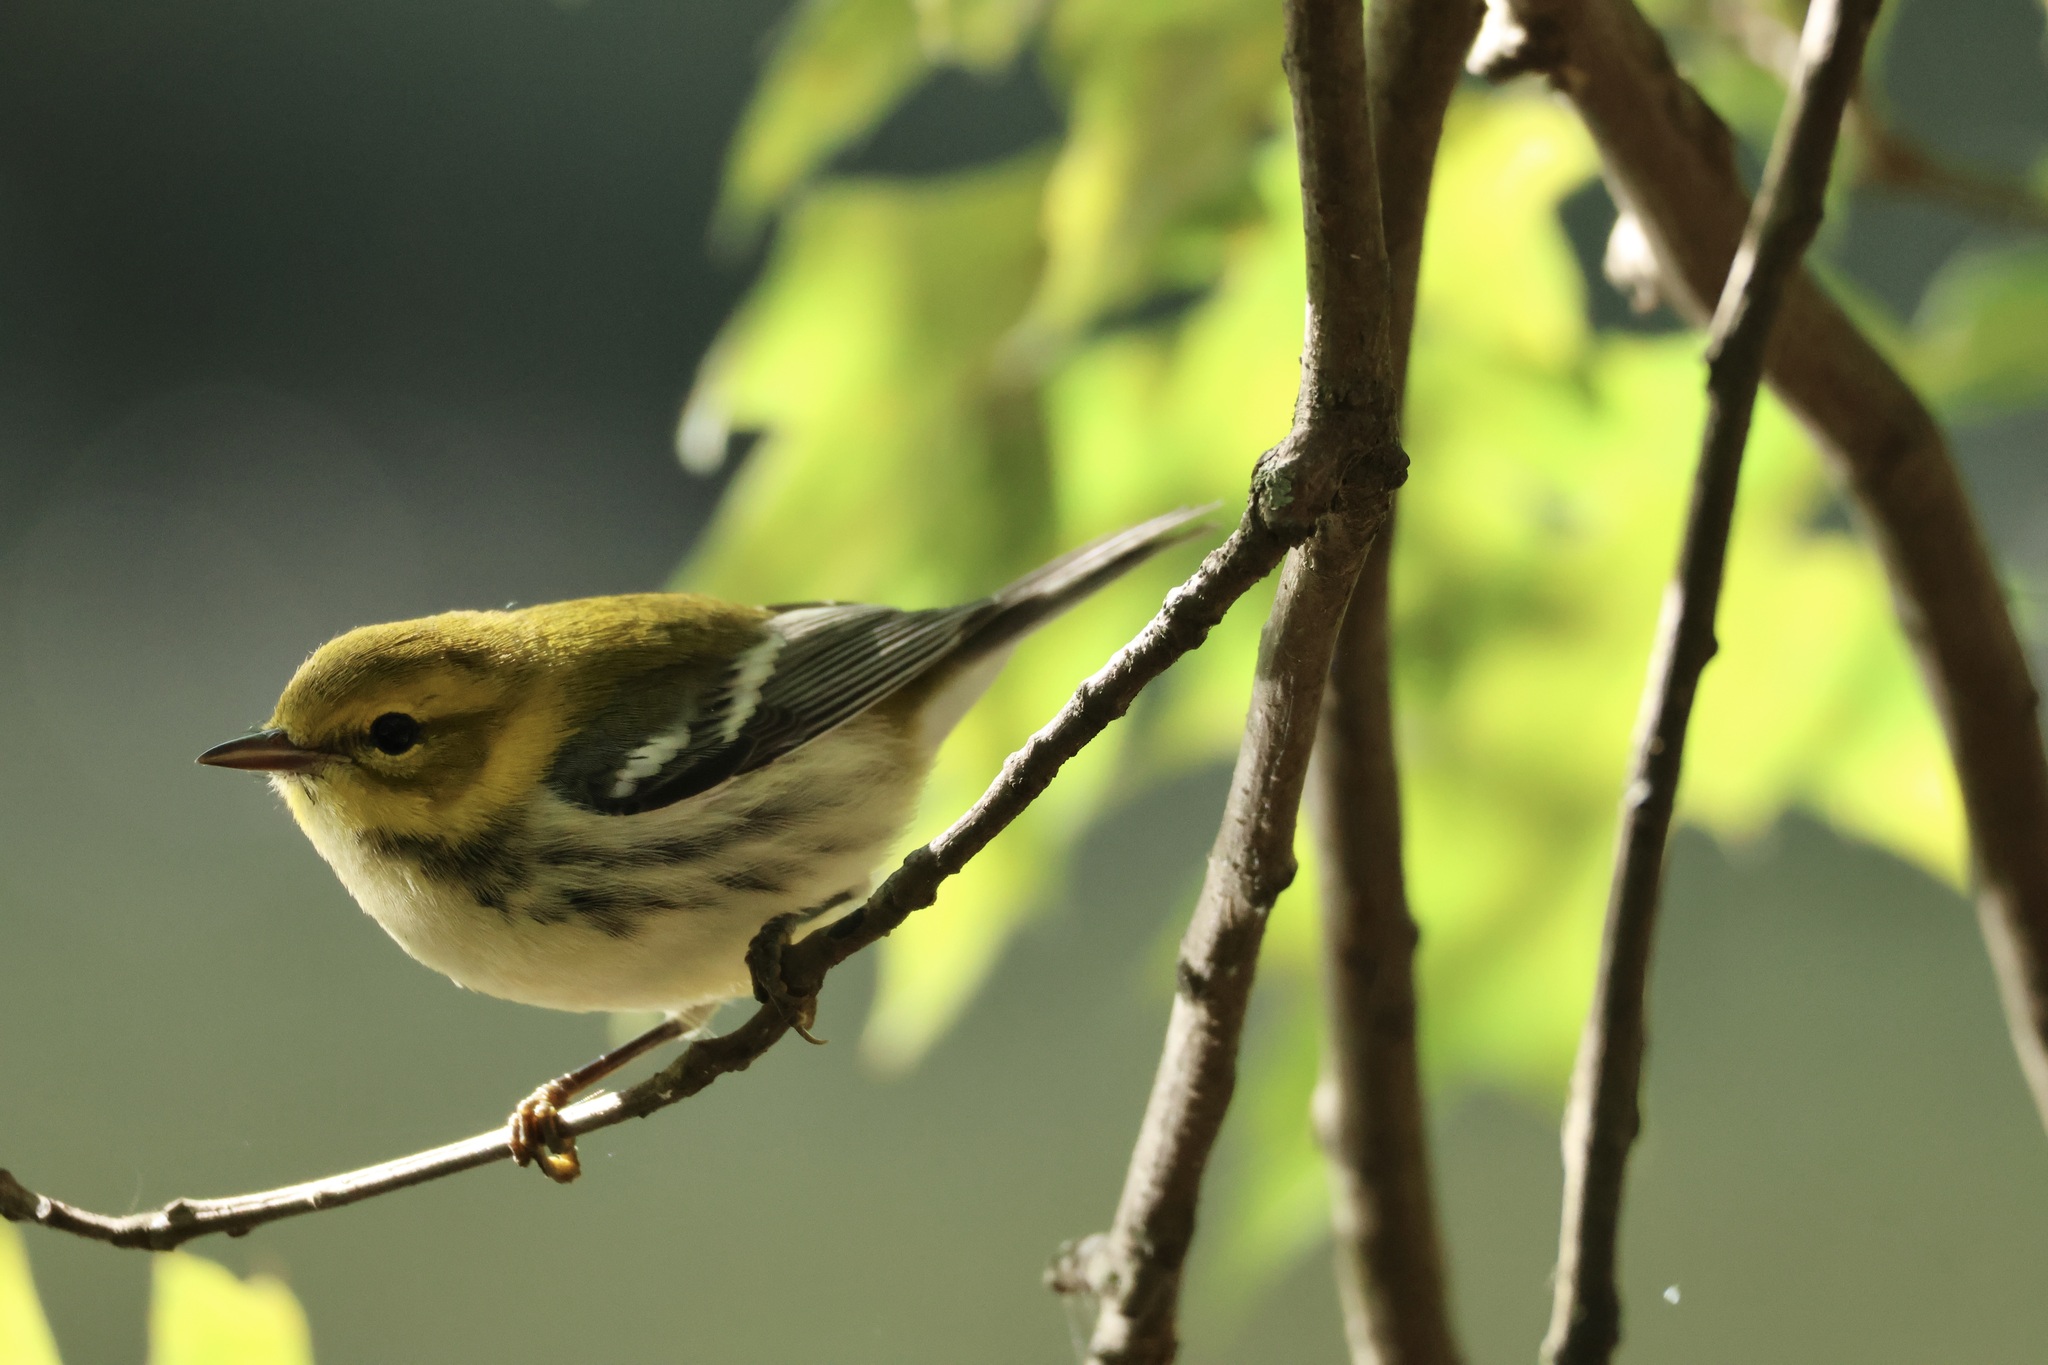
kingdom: Animalia
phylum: Chordata
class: Aves
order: Passeriformes
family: Parulidae
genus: Setophaga
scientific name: Setophaga virens
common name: Black-throated green warbler
